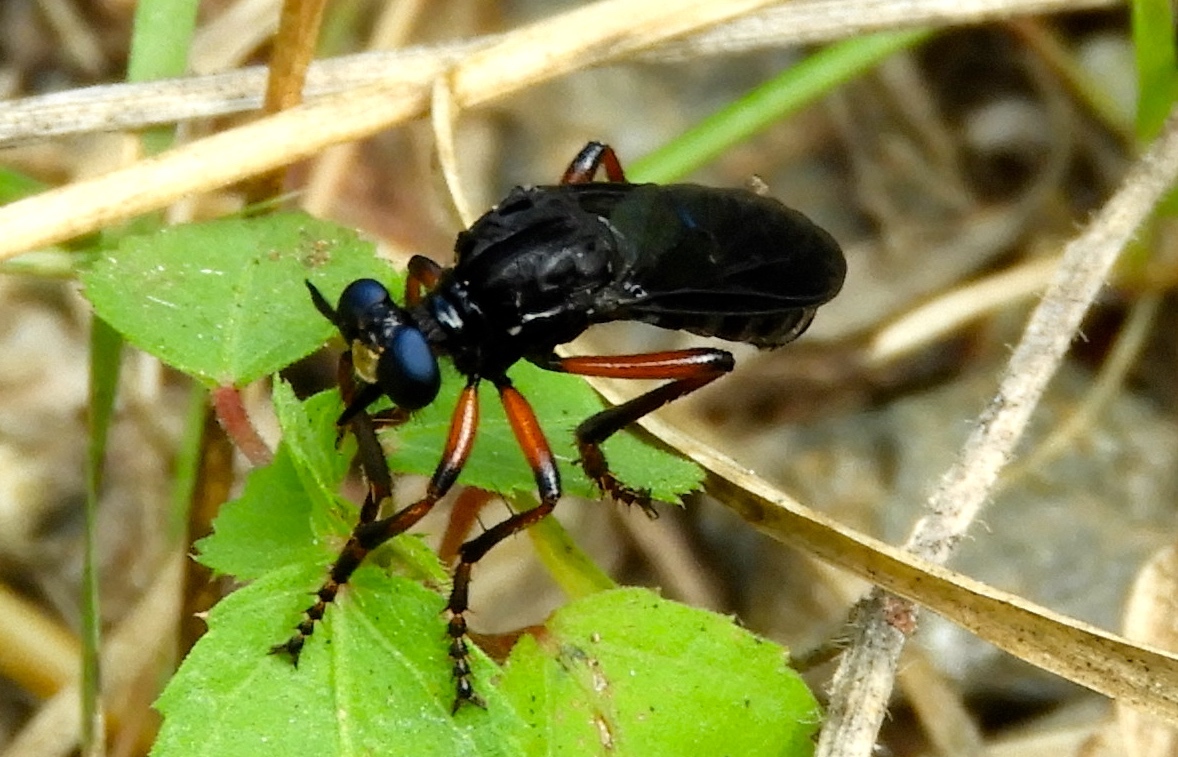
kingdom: Animalia
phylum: Arthropoda
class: Insecta
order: Diptera
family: Asilidae
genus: Saropogon
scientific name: Saropogon
